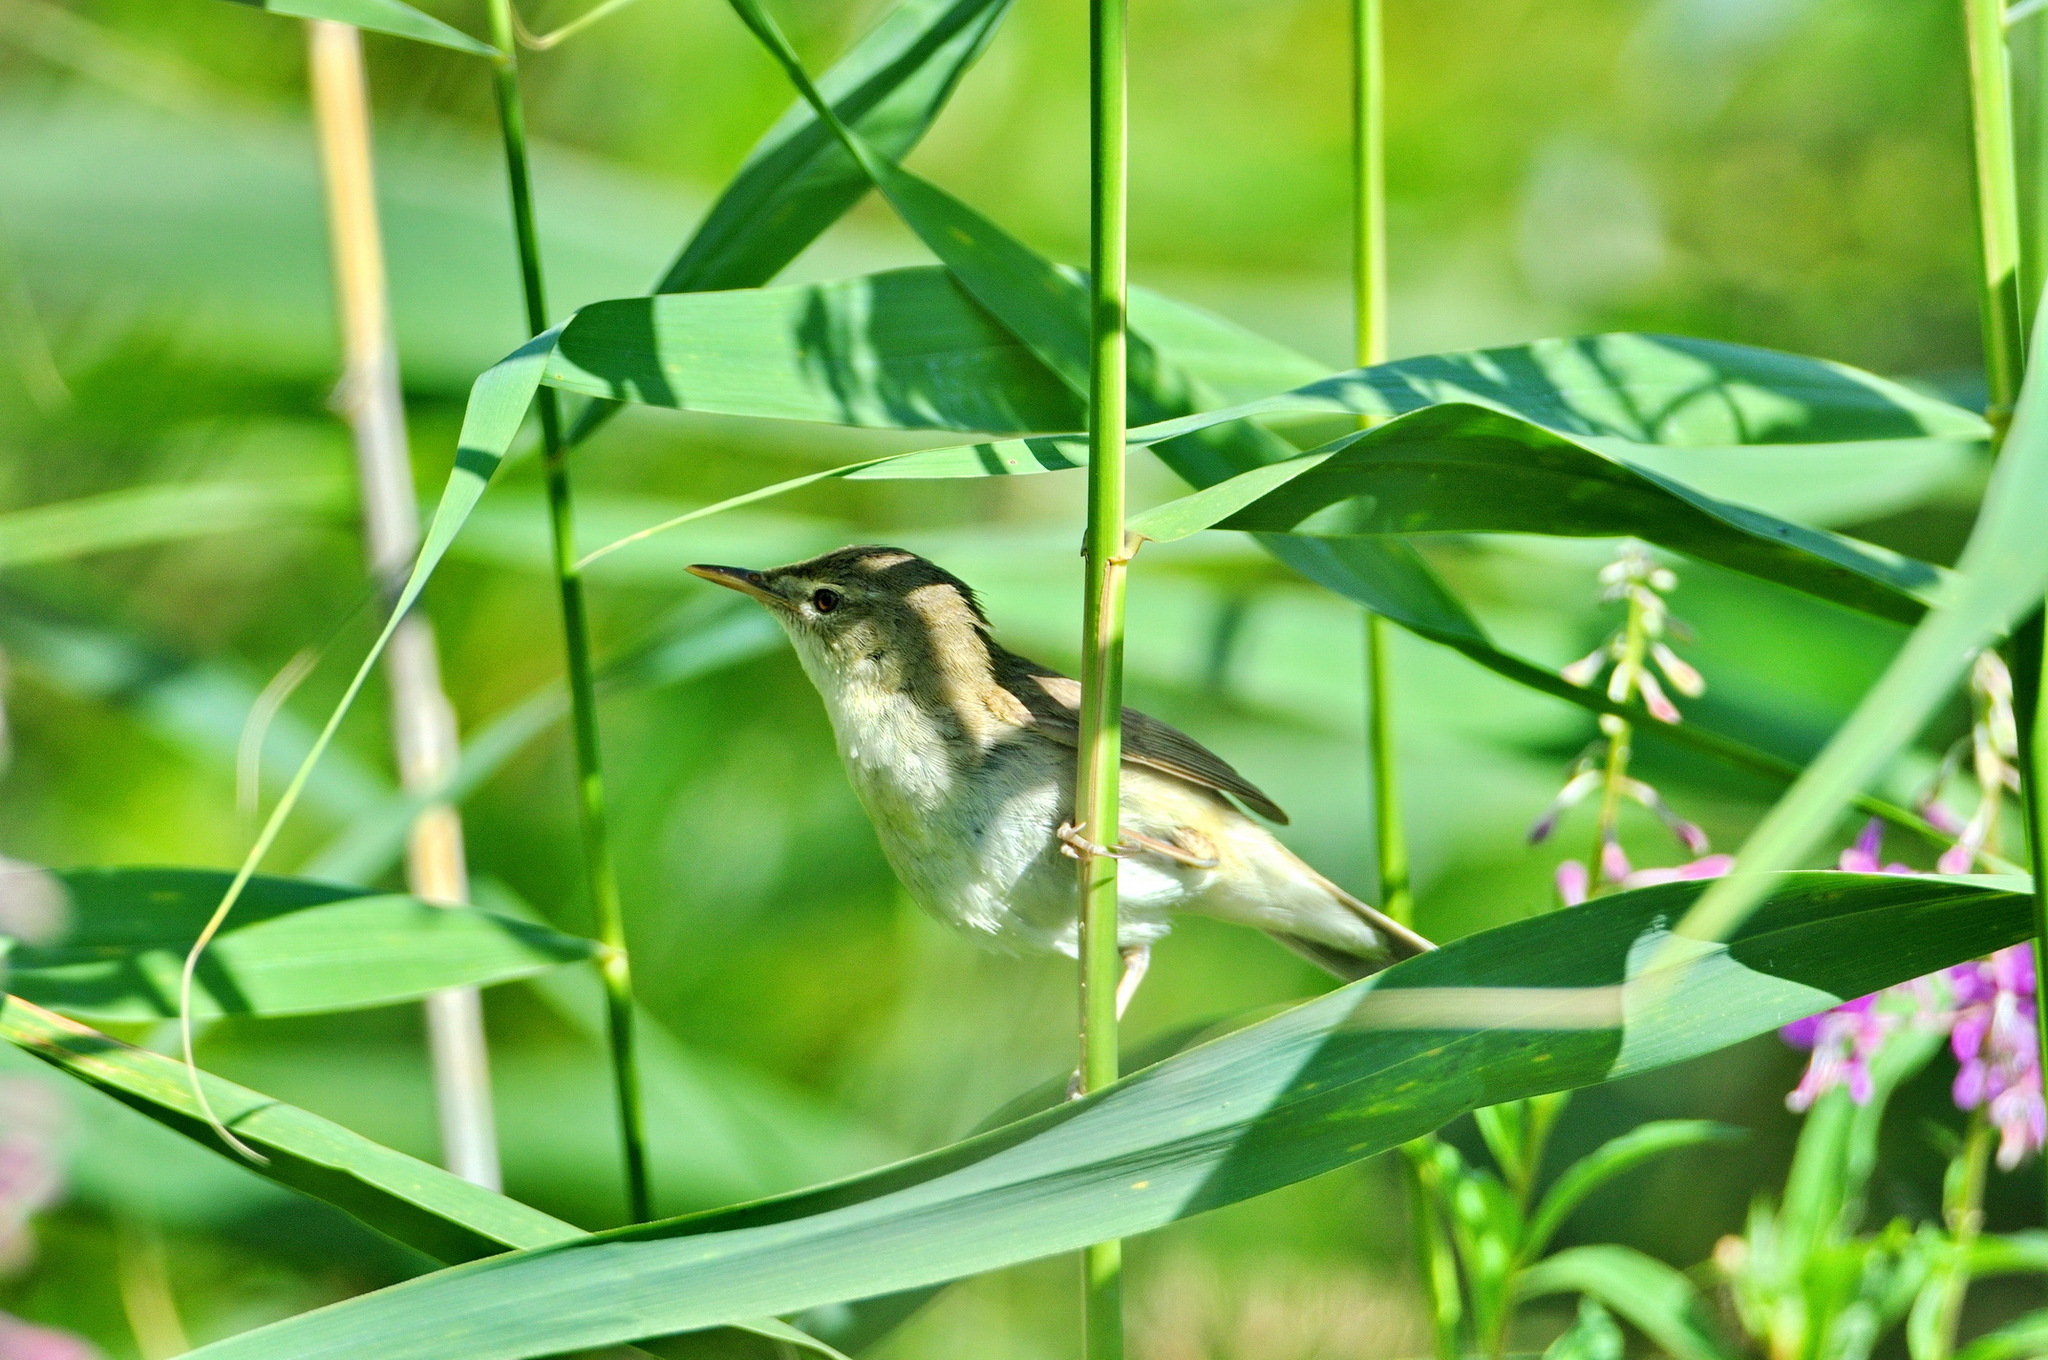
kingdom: Animalia
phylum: Chordata
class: Aves
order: Passeriformes
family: Acrocephalidae
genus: Acrocephalus
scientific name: Acrocephalus dumetorum
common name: Blyth's reed warbler
